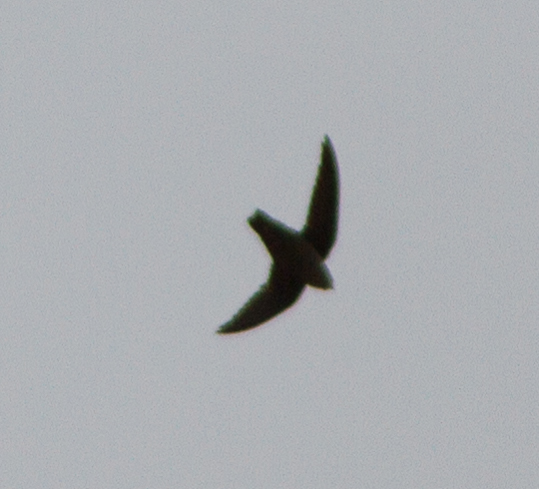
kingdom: Animalia
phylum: Chordata
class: Aves
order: Apodiformes
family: Apodidae
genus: Chaetura
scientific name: Chaetura vauxi
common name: Vaux's swift
